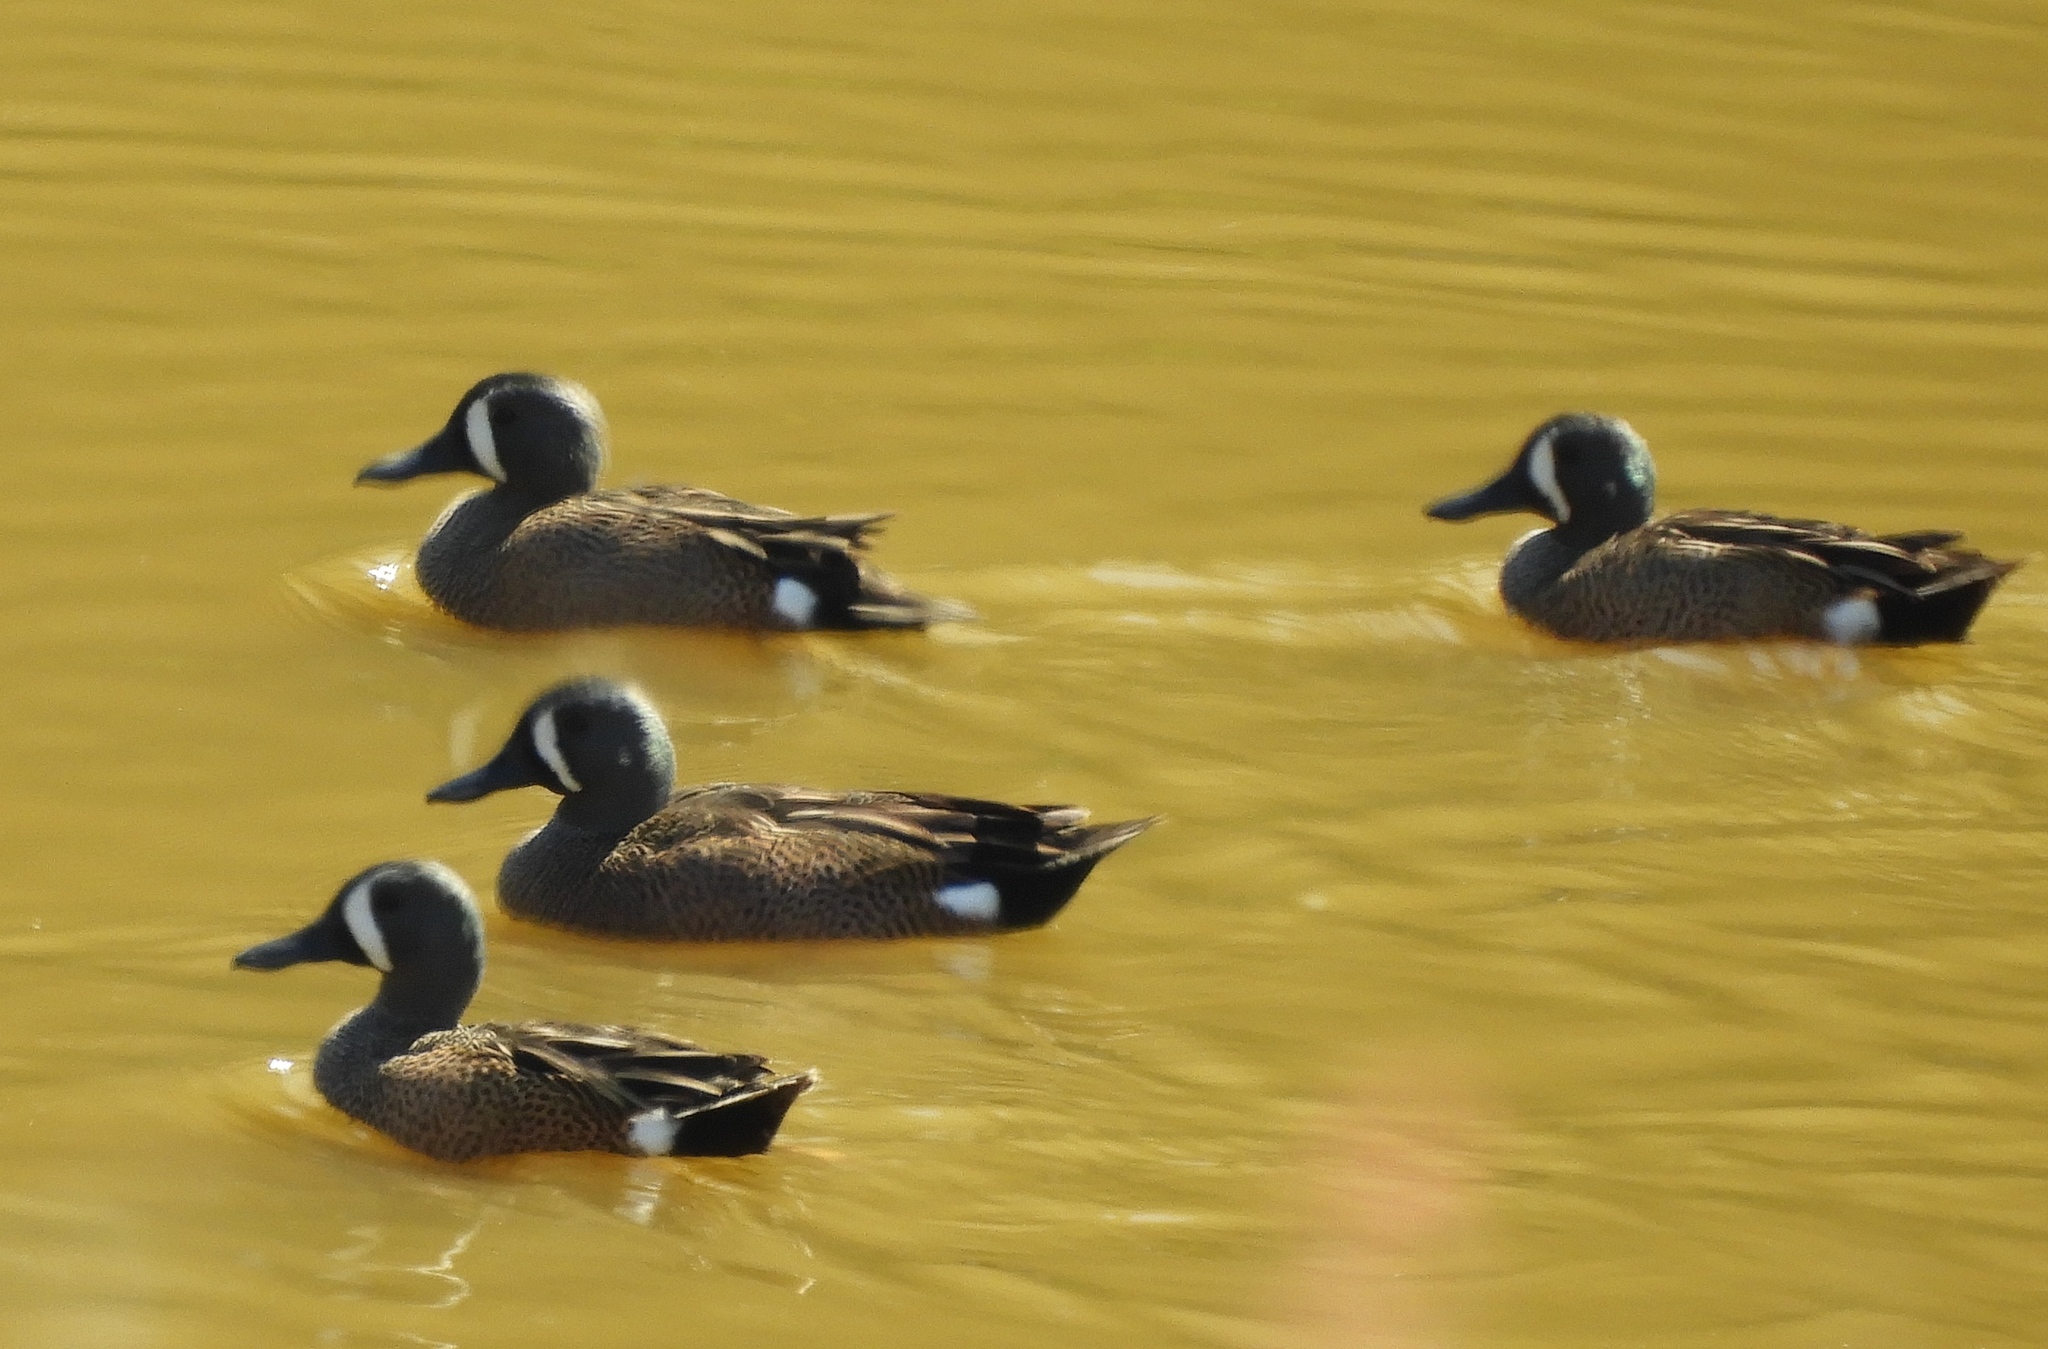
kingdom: Animalia
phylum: Chordata
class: Aves
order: Anseriformes
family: Anatidae
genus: Spatula
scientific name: Spatula discors
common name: Blue-winged teal
